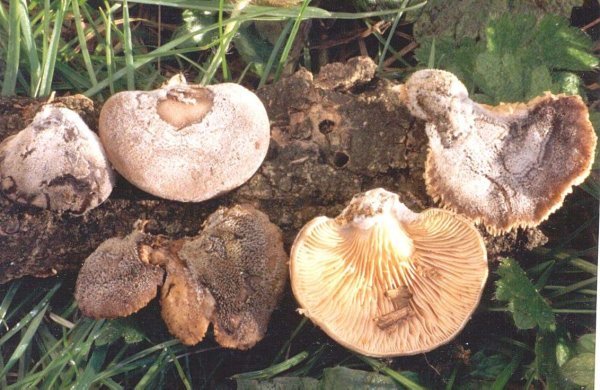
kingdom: Fungi
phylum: Basidiomycota
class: Agaricomycetes
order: Agaricales
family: Pleurotaceae
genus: Hohenbuehelia
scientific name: Hohenbuehelia atrocoerulea
